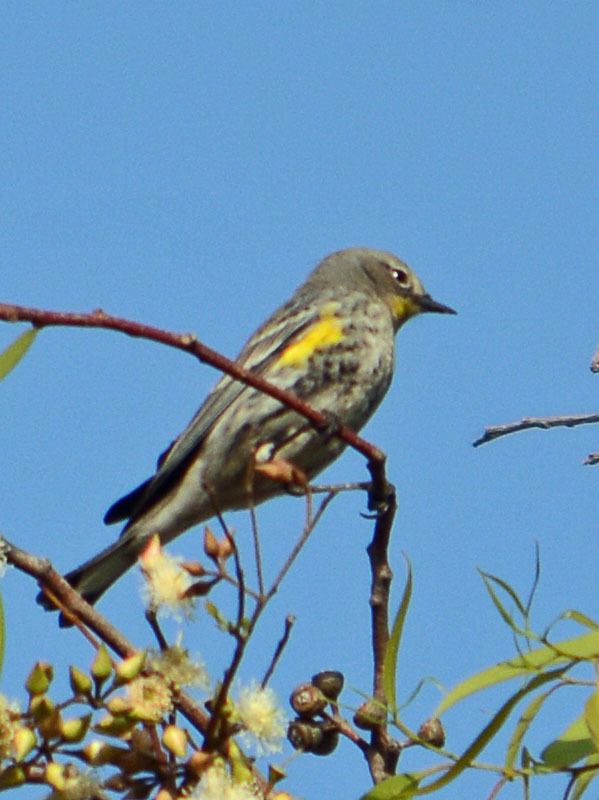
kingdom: Animalia
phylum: Chordata
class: Aves
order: Passeriformes
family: Parulidae
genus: Setophaga
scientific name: Setophaga auduboni
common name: Audubon's warbler
